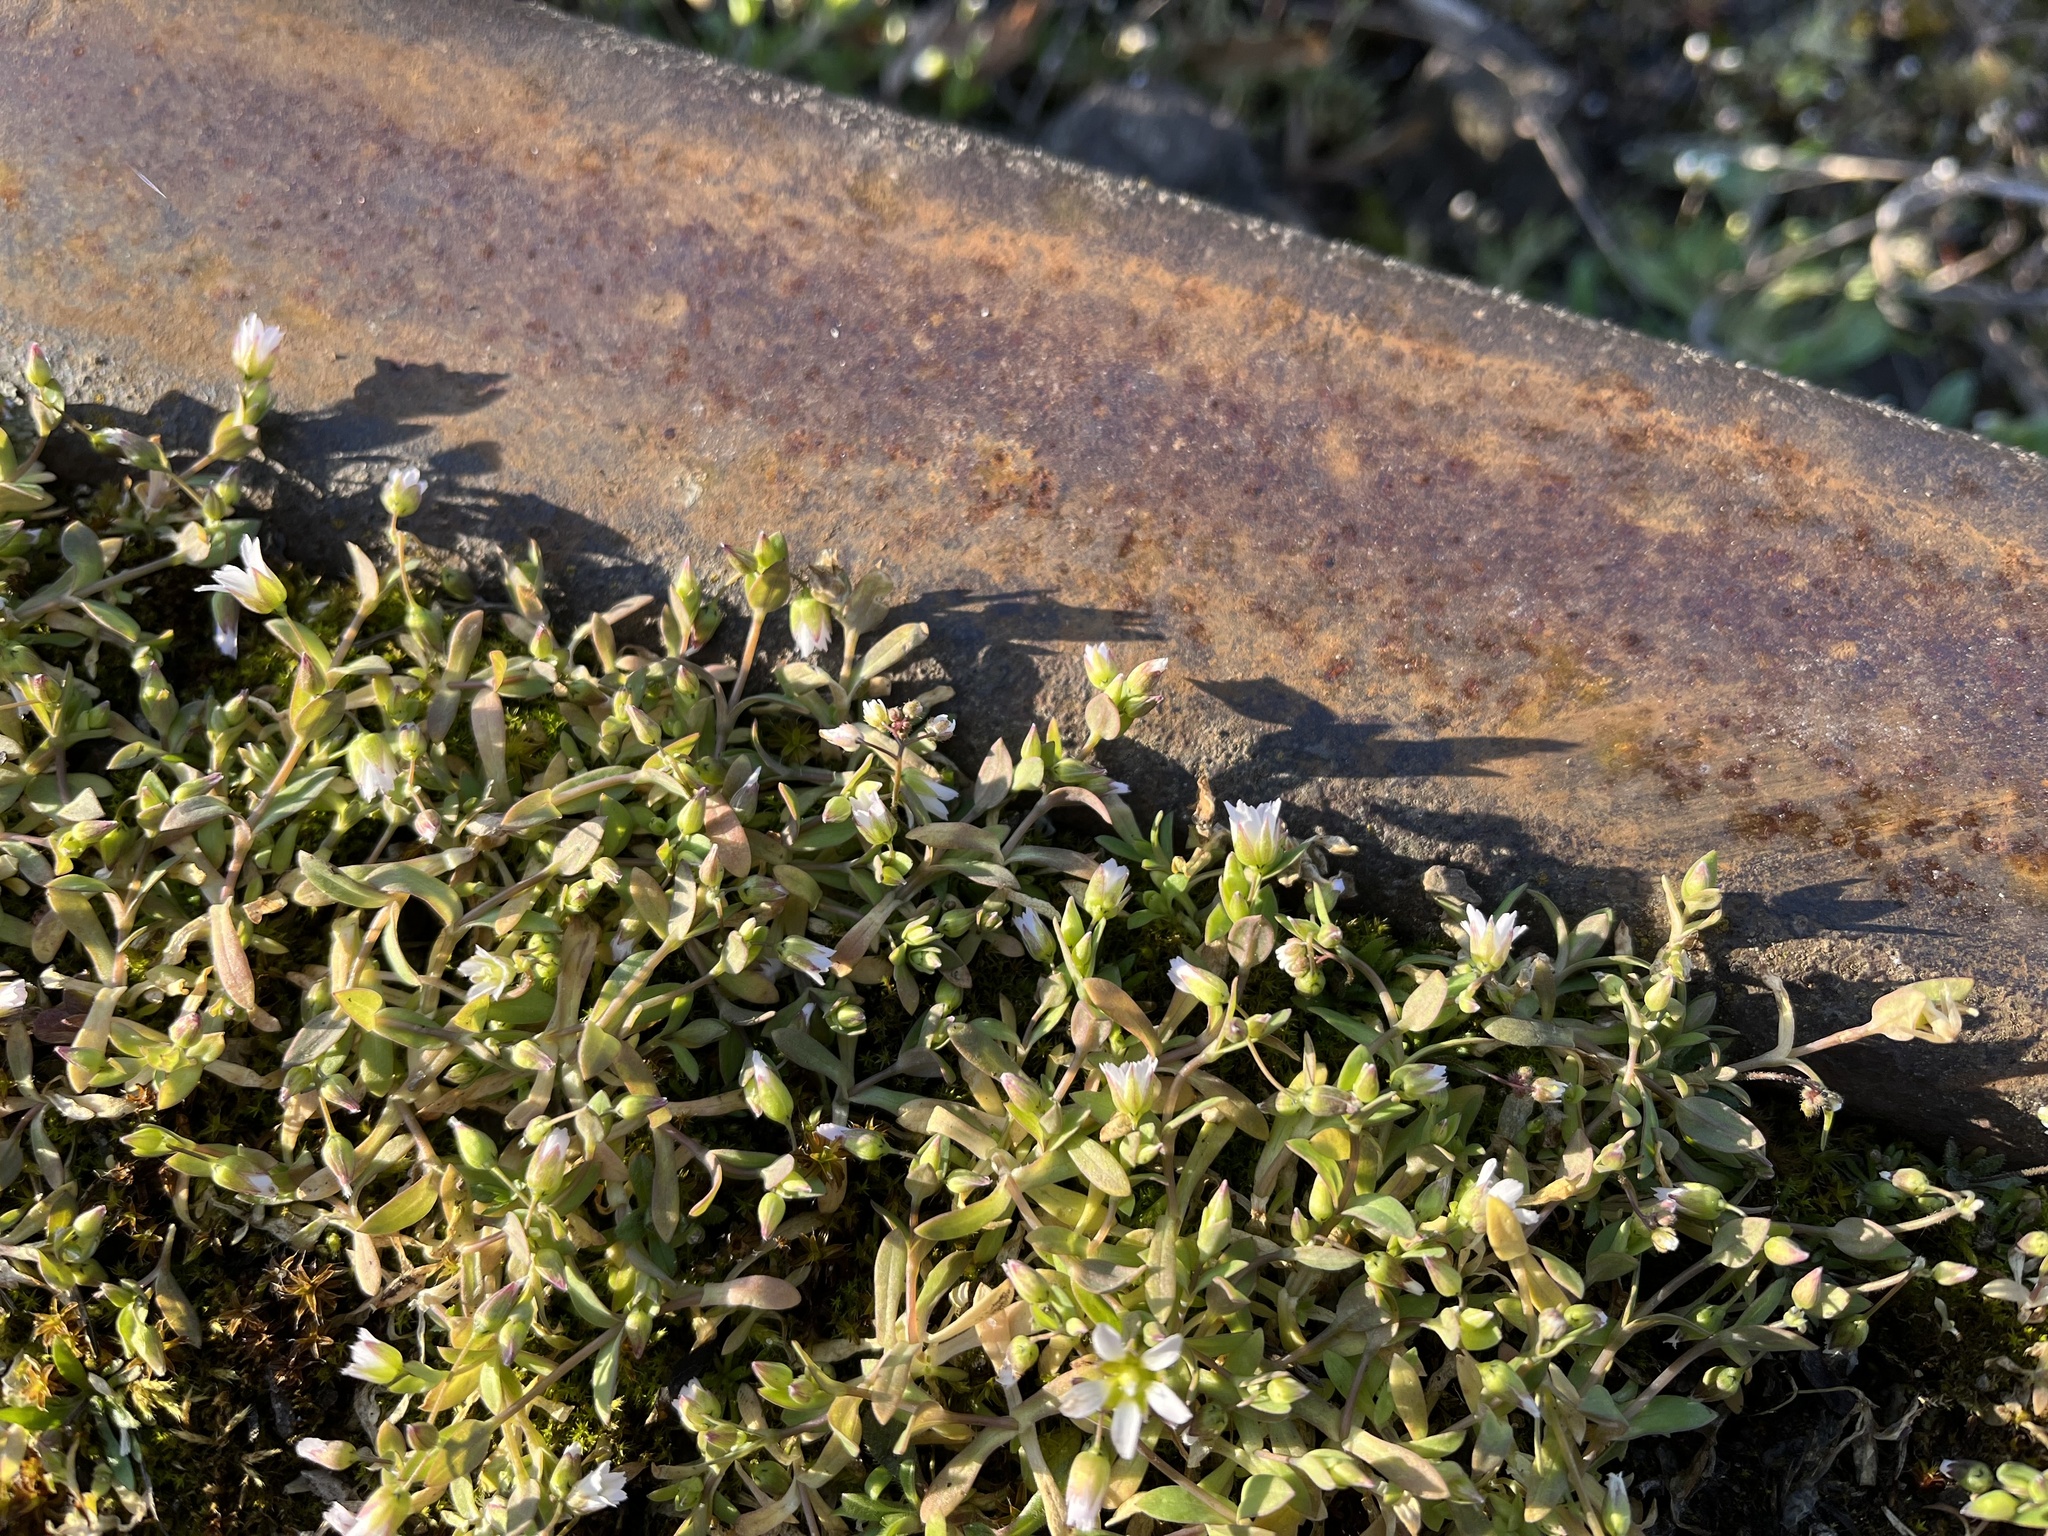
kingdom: Plantae
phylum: Tracheophyta
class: Magnoliopsida
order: Caryophyllales
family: Caryophyllaceae
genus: Holosteum
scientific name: Holosteum umbellatum
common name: Jagged chickweed
